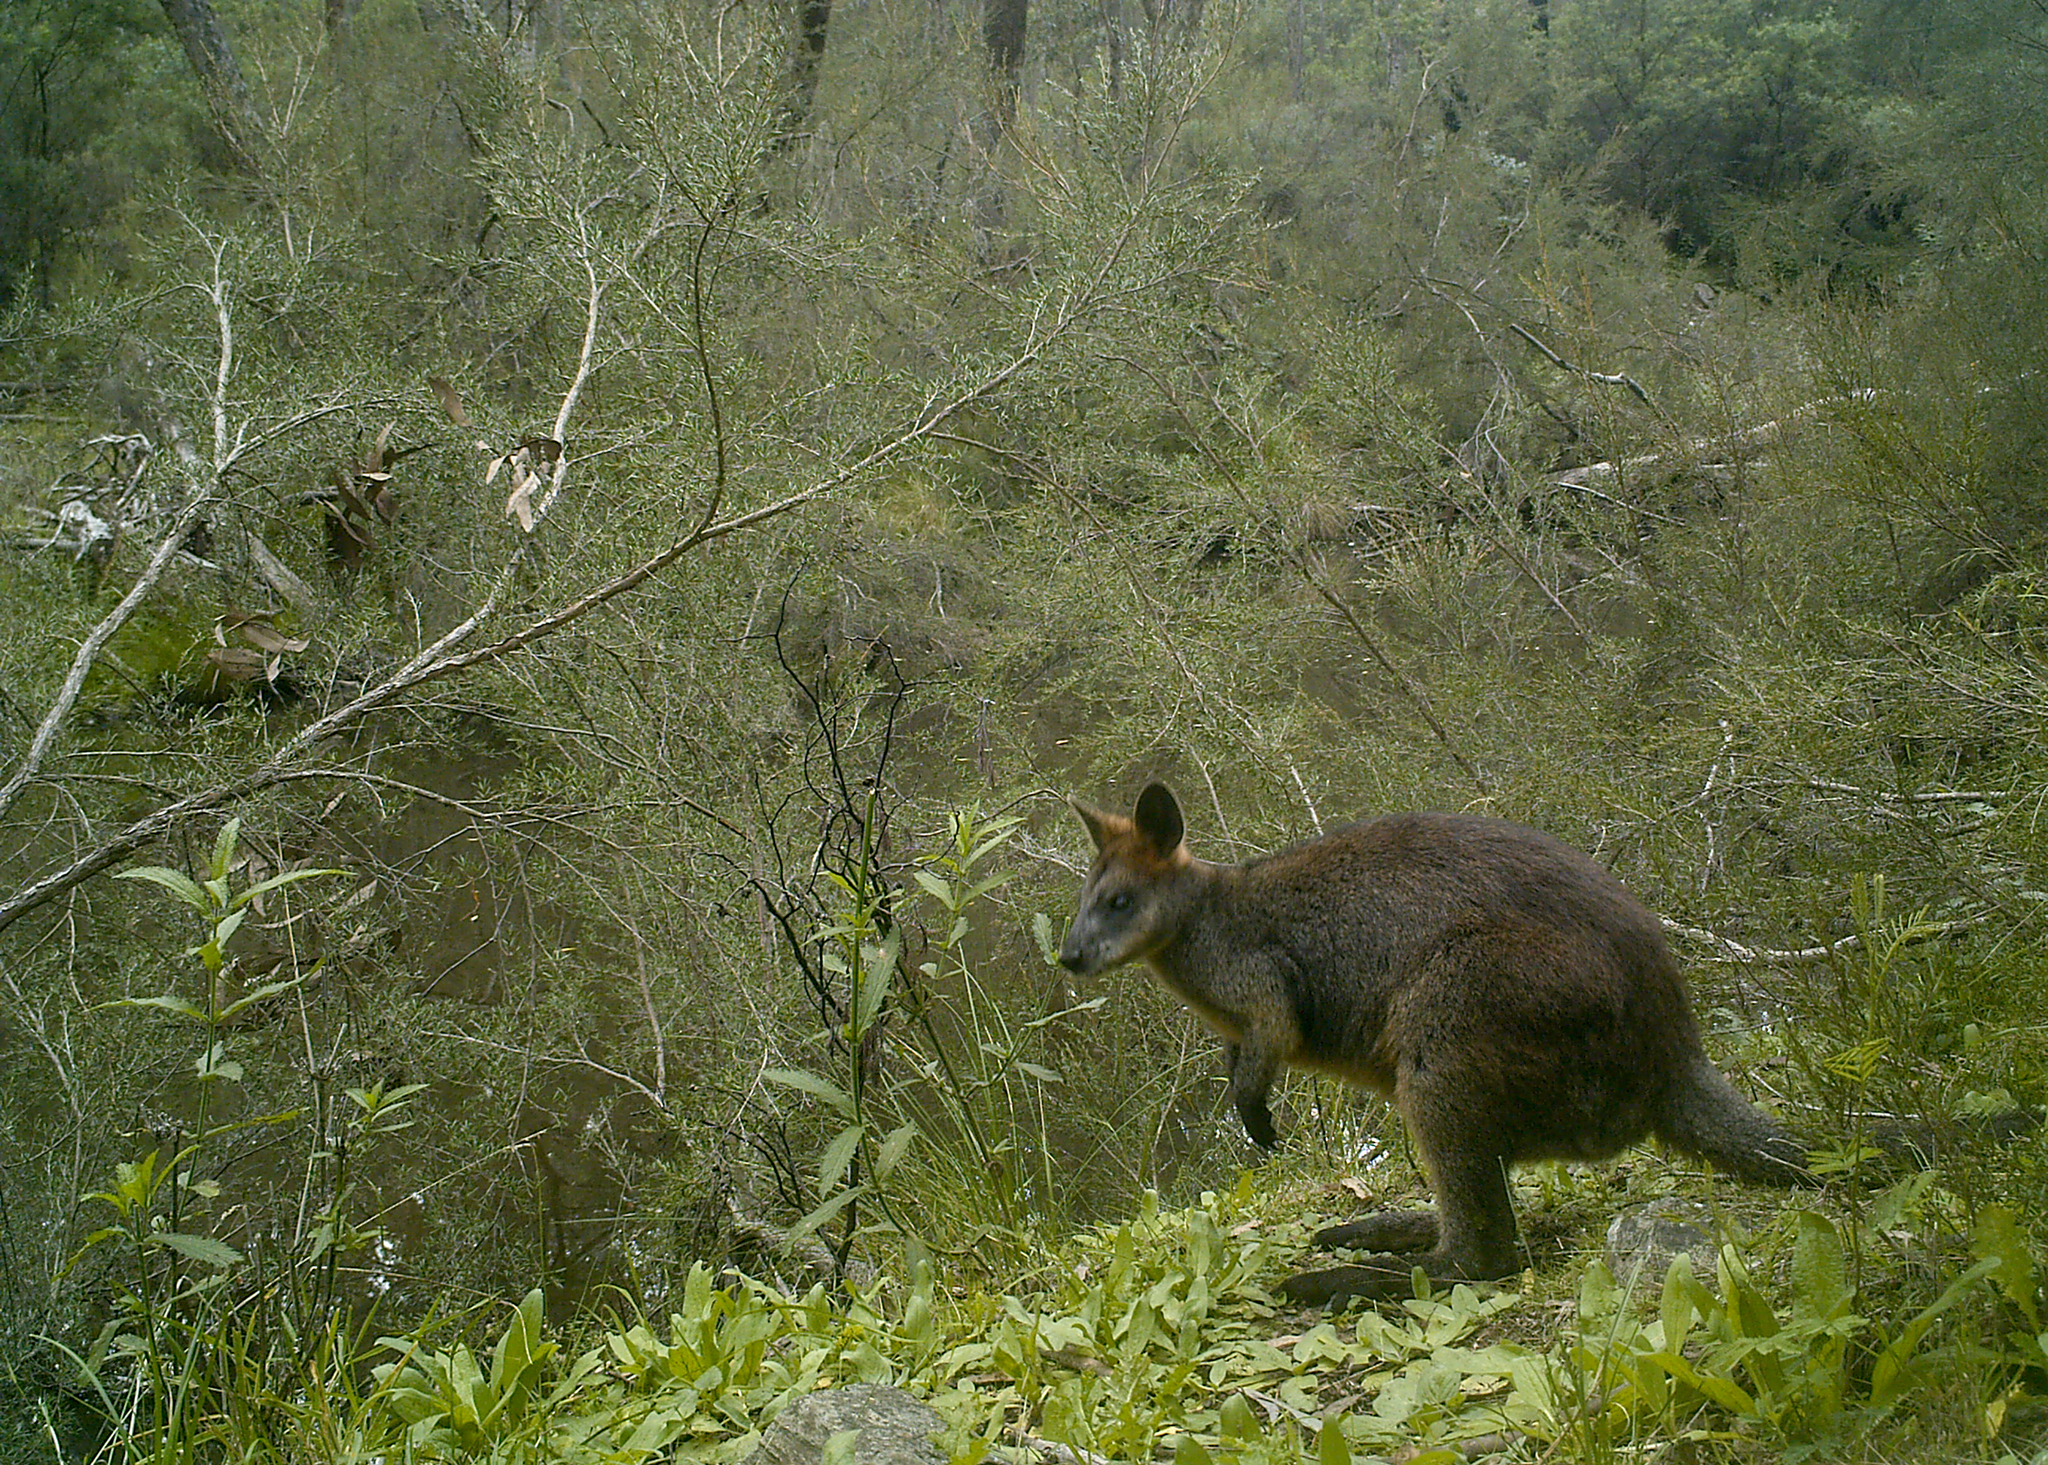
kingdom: Animalia
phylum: Chordata
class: Mammalia
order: Diprotodontia
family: Macropodidae
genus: Wallabia
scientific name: Wallabia bicolor
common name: Swamp wallaby
